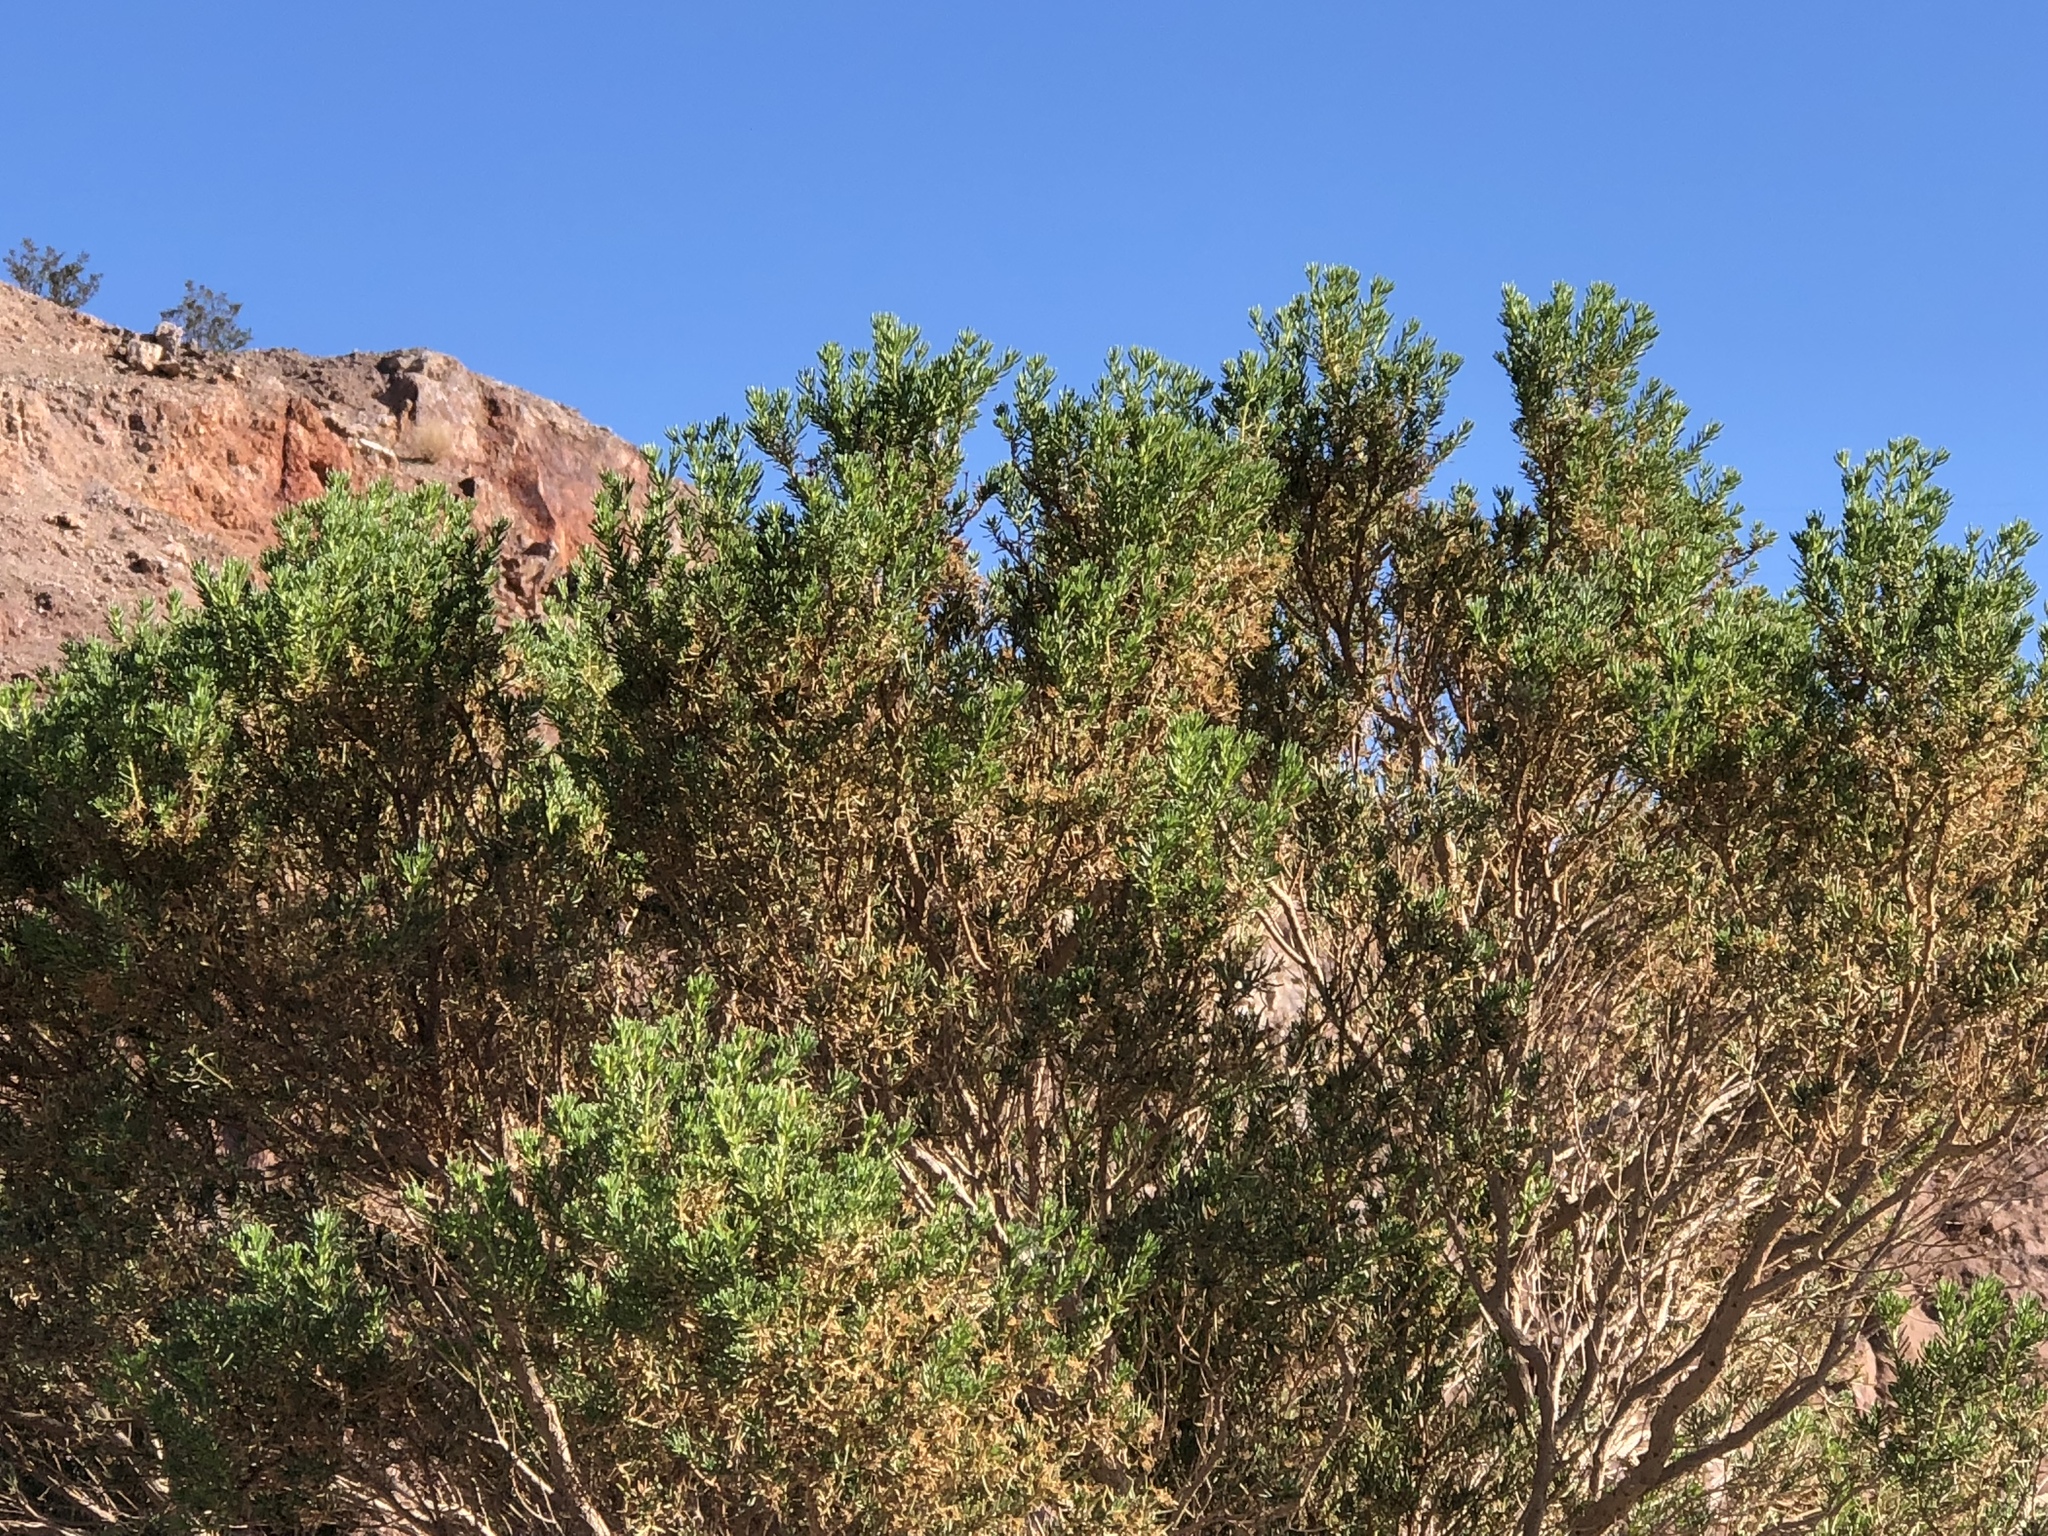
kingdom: Plantae
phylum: Tracheophyta
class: Magnoliopsida
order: Asterales
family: Asteraceae
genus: Peucephyllum
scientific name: Peucephyllum schottii
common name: Pygmy-cedar
